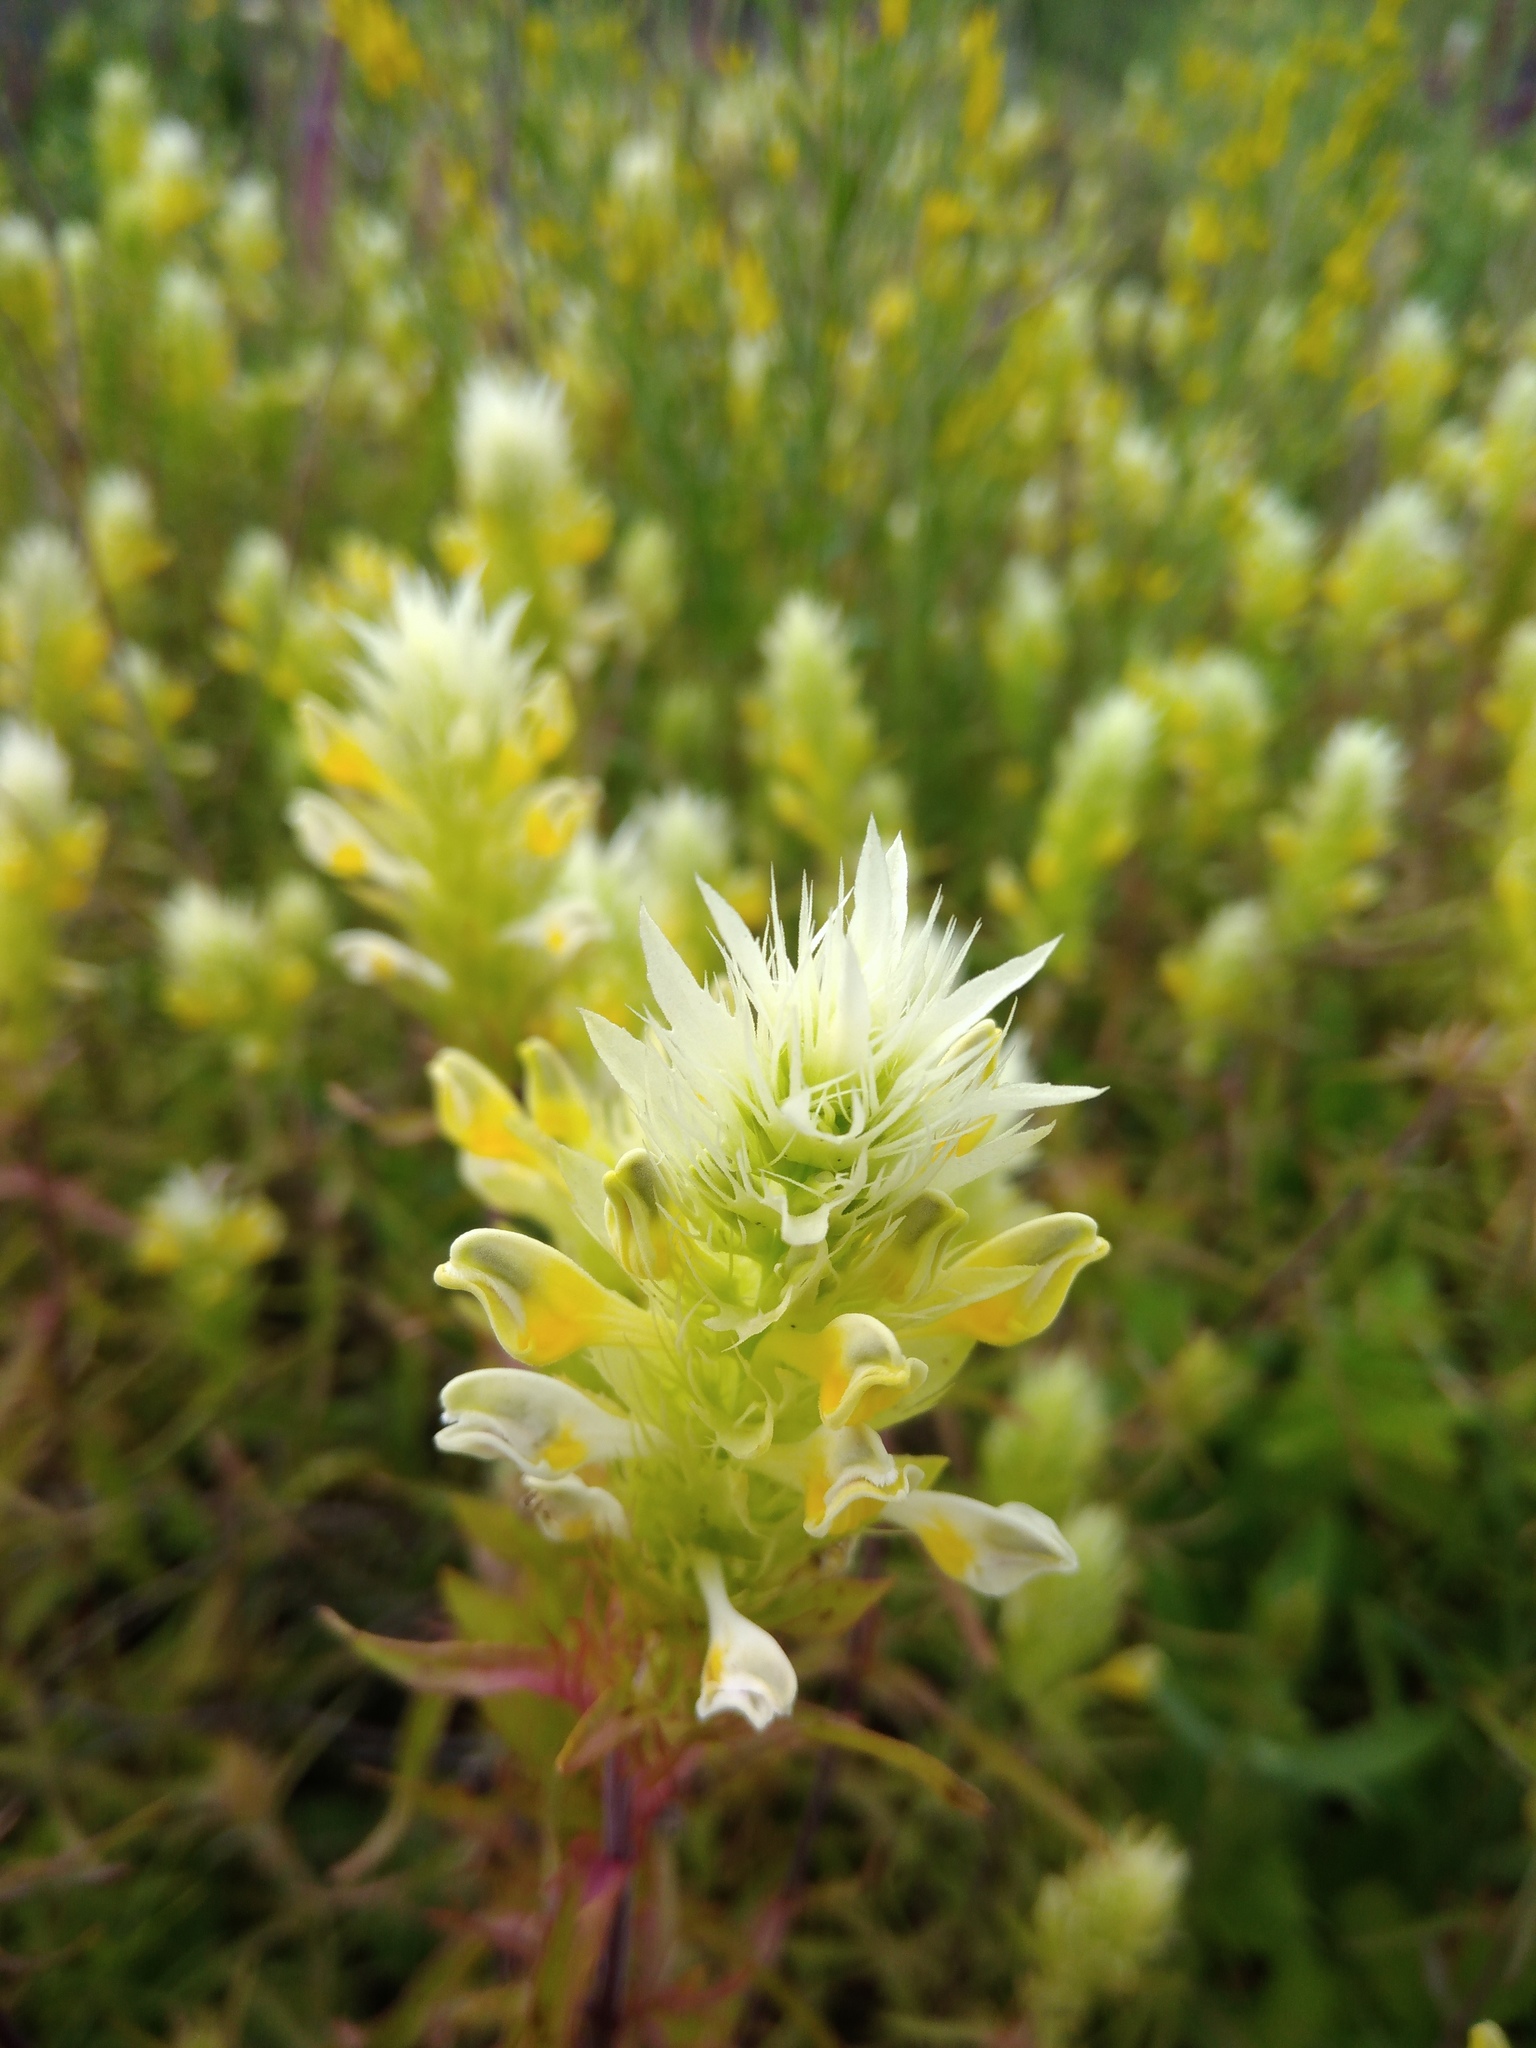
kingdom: Plantae
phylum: Tracheophyta
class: Magnoliopsida
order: Lamiales
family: Orobanchaceae
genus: Melampyrum
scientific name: Melampyrum arvense
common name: Field cow-wheat
